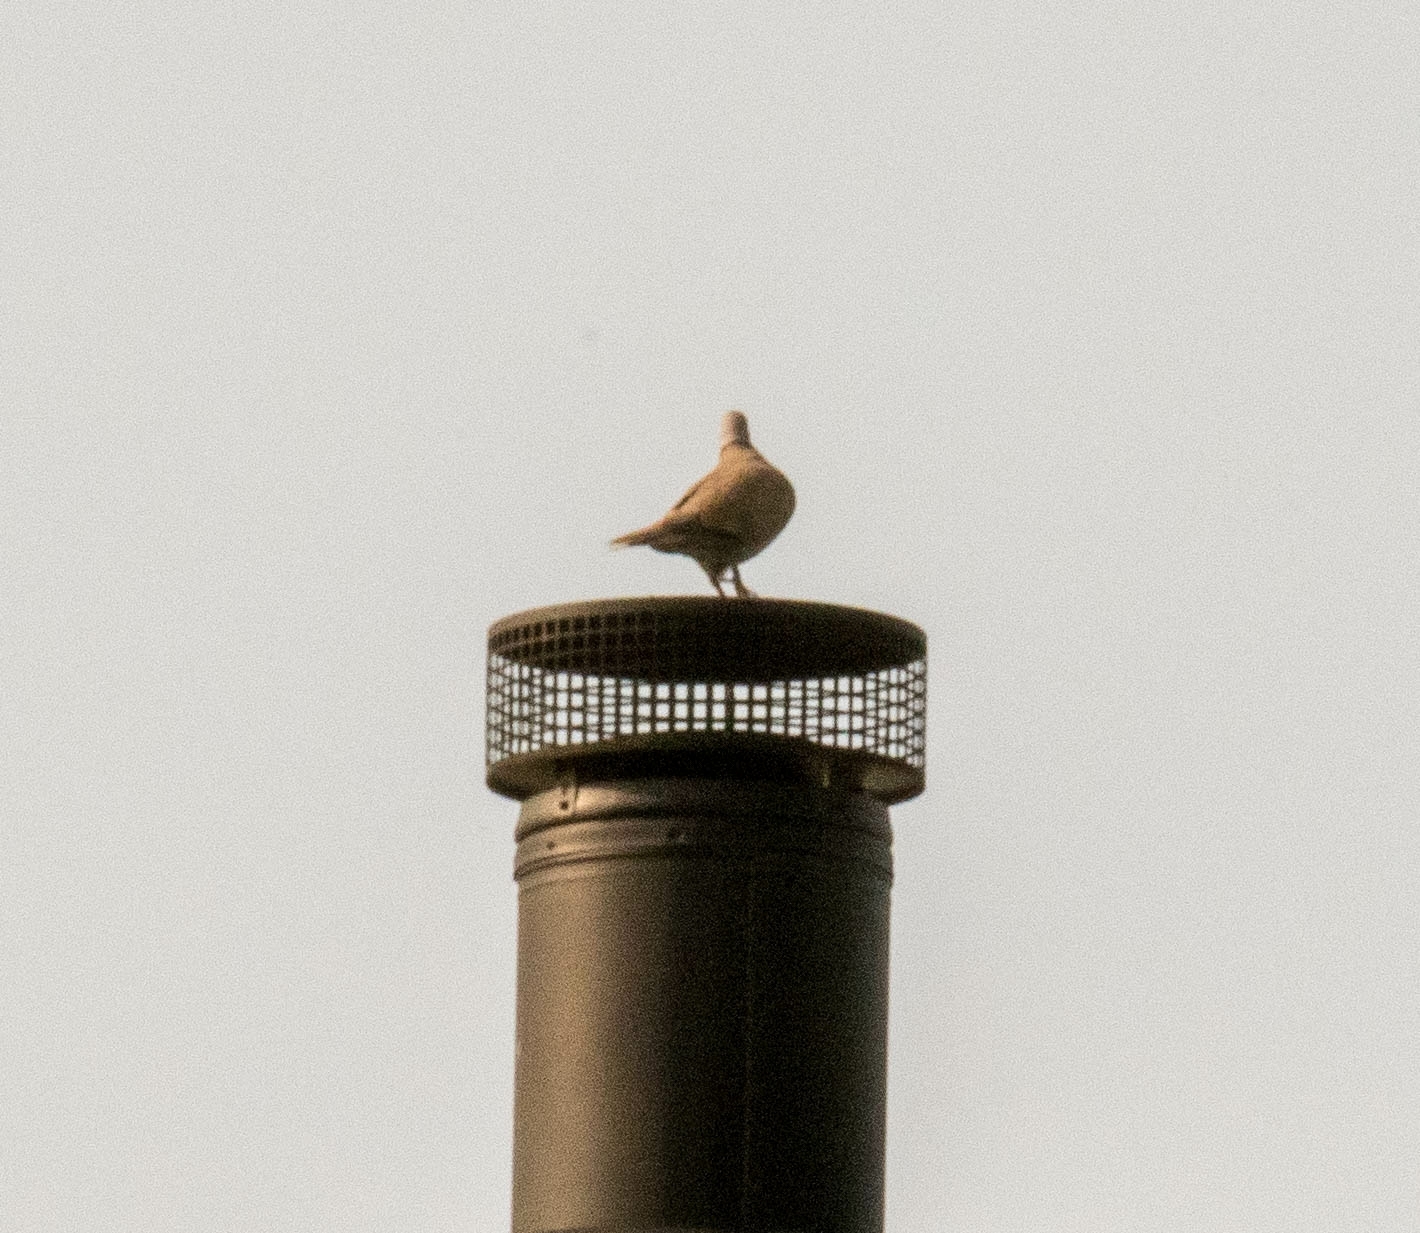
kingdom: Animalia
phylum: Chordata
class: Aves
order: Columbiformes
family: Columbidae
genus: Streptopelia
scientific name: Streptopelia decaocto
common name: Eurasian collared dove
